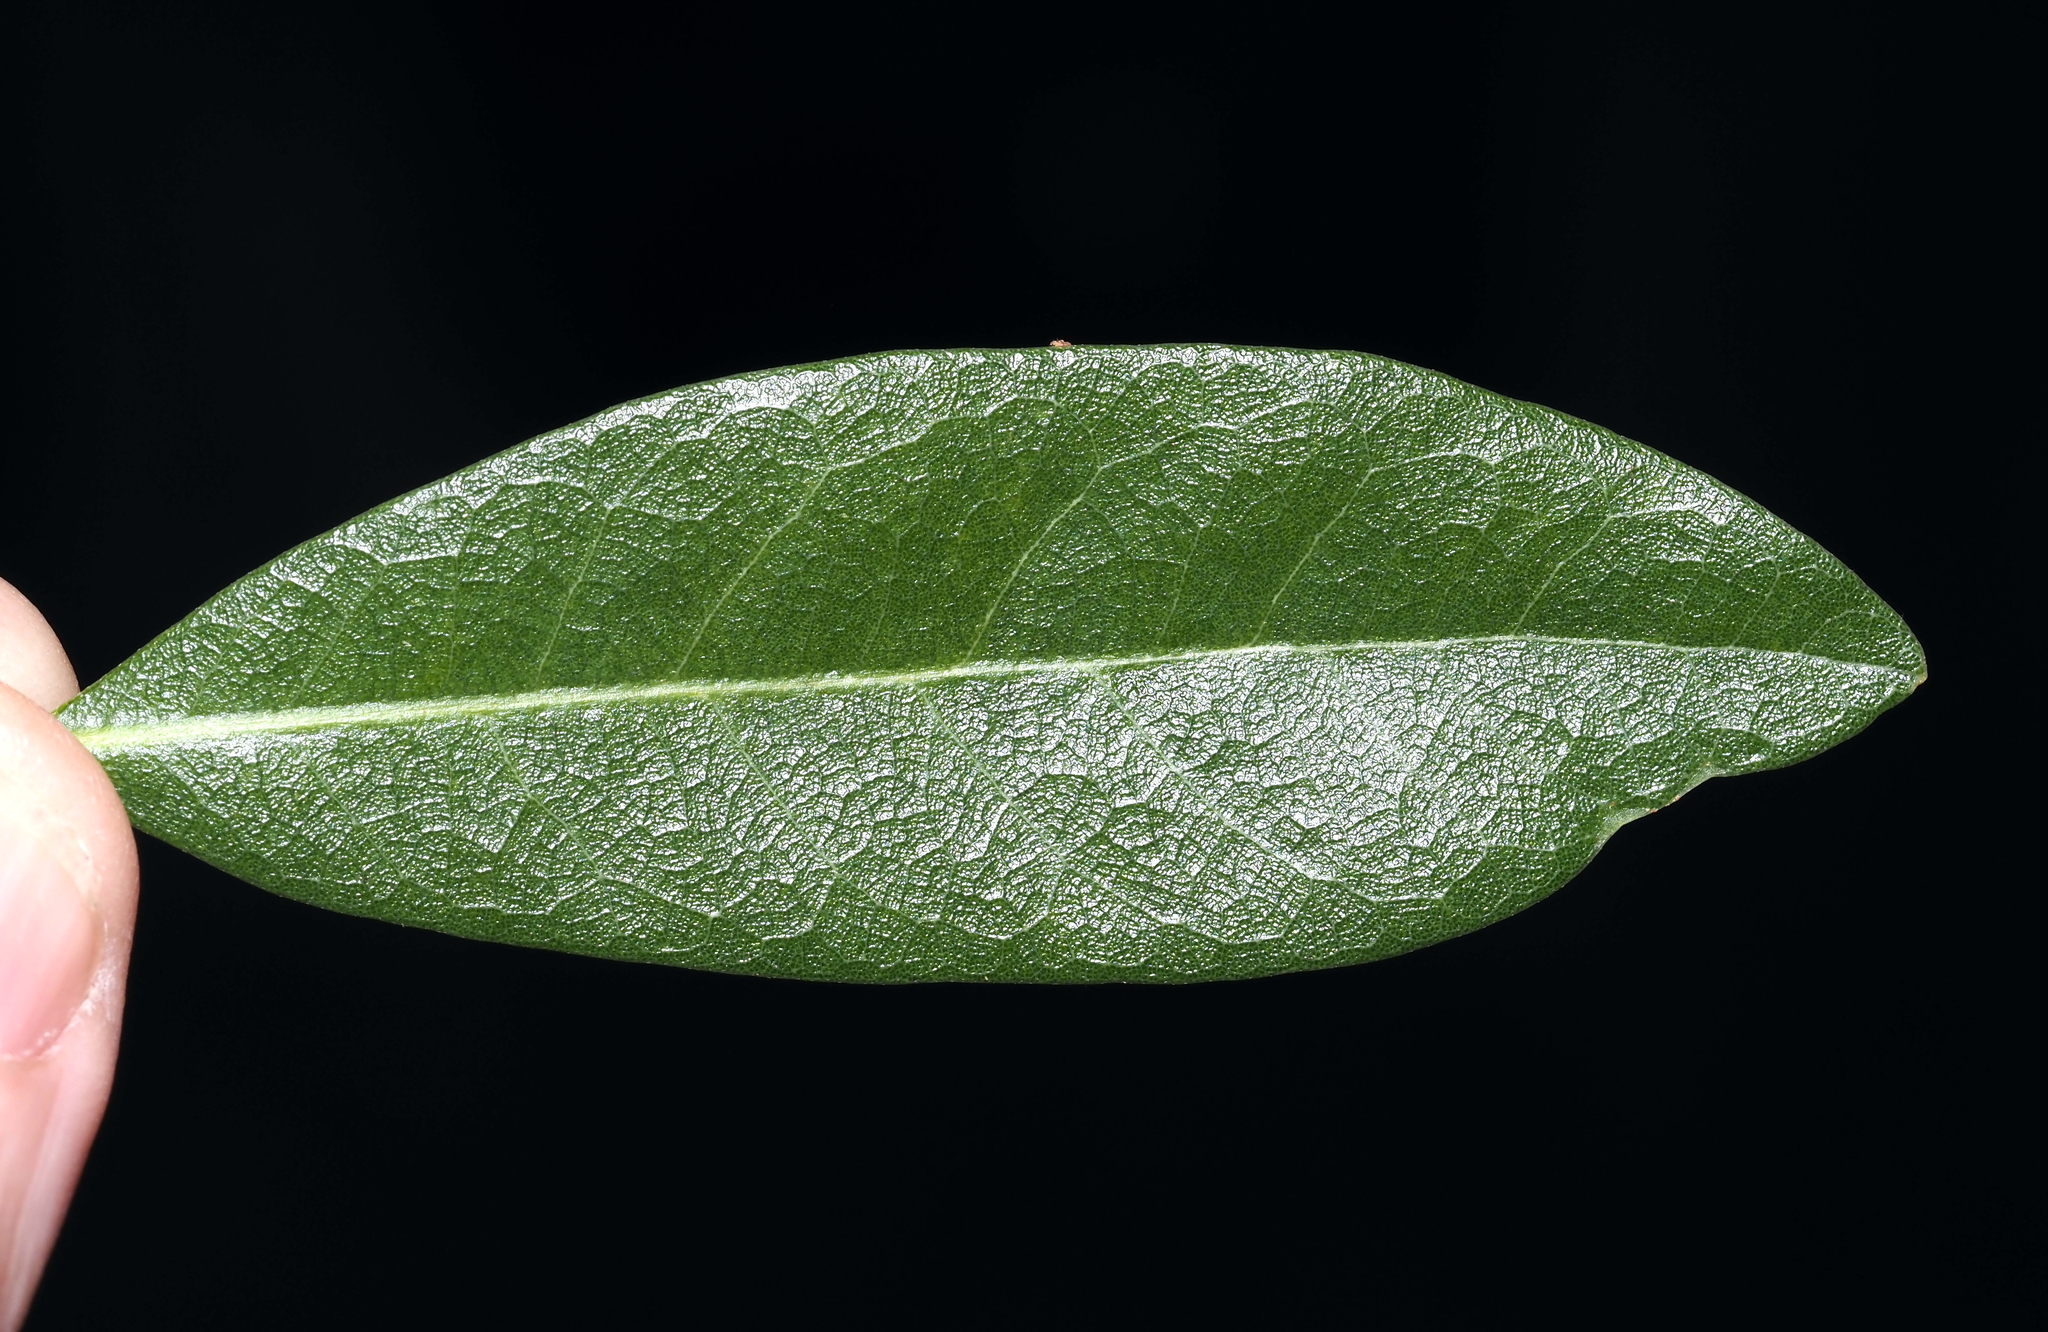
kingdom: Plantae
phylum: Tracheophyta
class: Magnoliopsida
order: Fagales
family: Fagaceae
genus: Quercus
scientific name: Quercus virginiana
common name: Southern live oak
